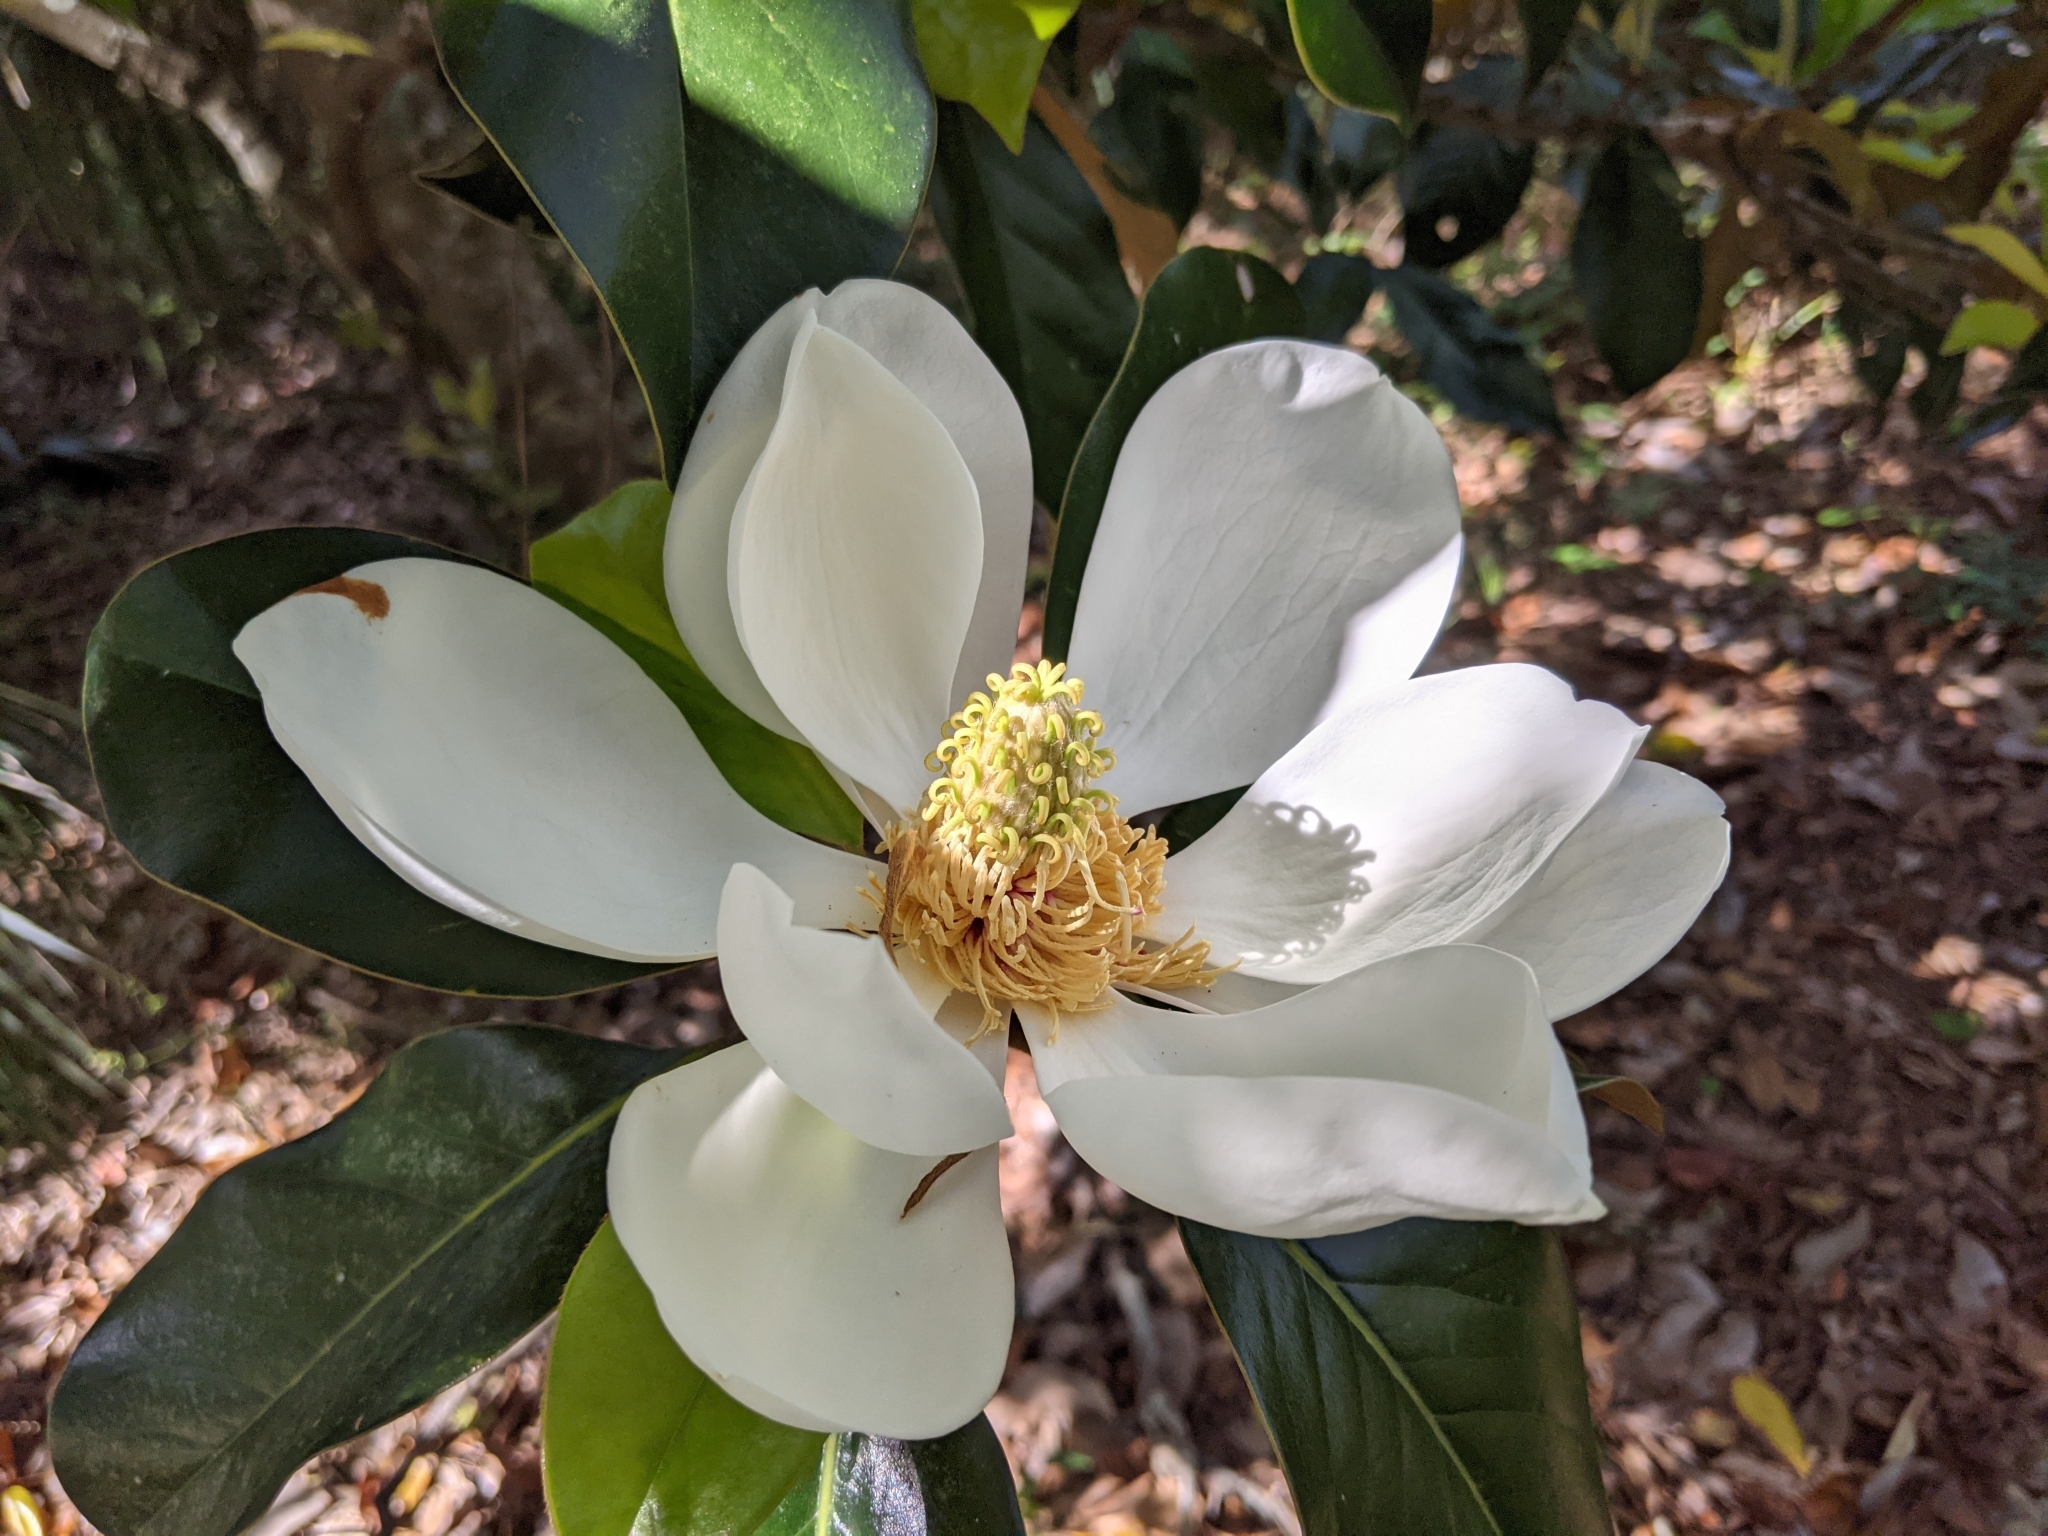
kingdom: Plantae
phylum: Tracheophyta
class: Magnoliopsida
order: Magnoliales
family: Magnoliaceae
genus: Magnolia
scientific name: Magnolia grandiflora
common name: Southern magnolia
